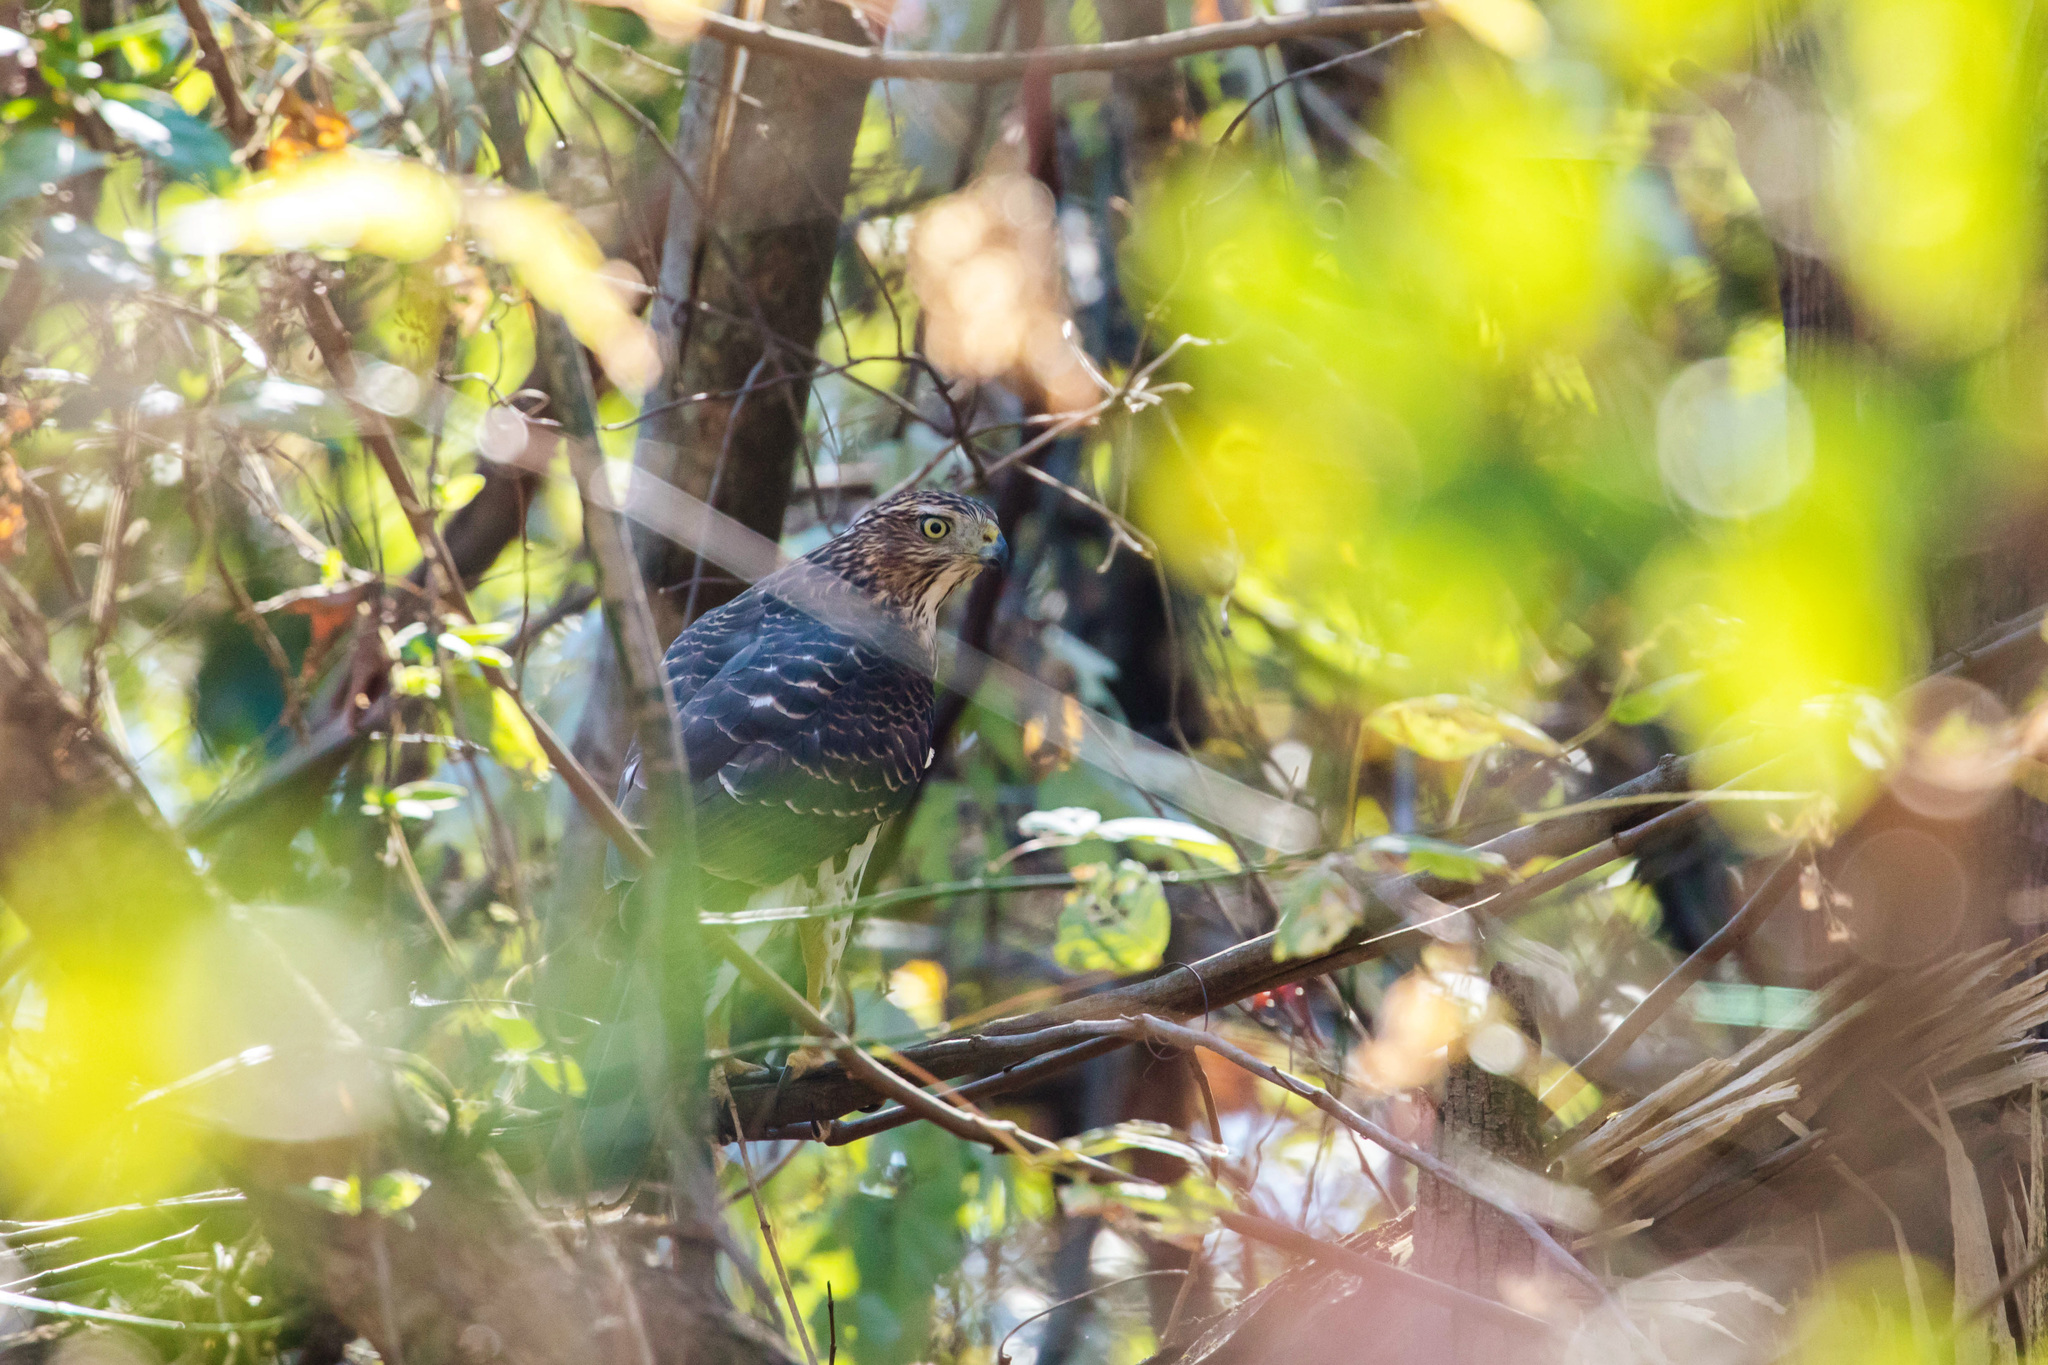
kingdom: Animalia
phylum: Chordata
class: Aves
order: Accipitriformes
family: Accipitridae
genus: Accipiter
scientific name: Accipiter cooperii
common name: Cooper's hawk
